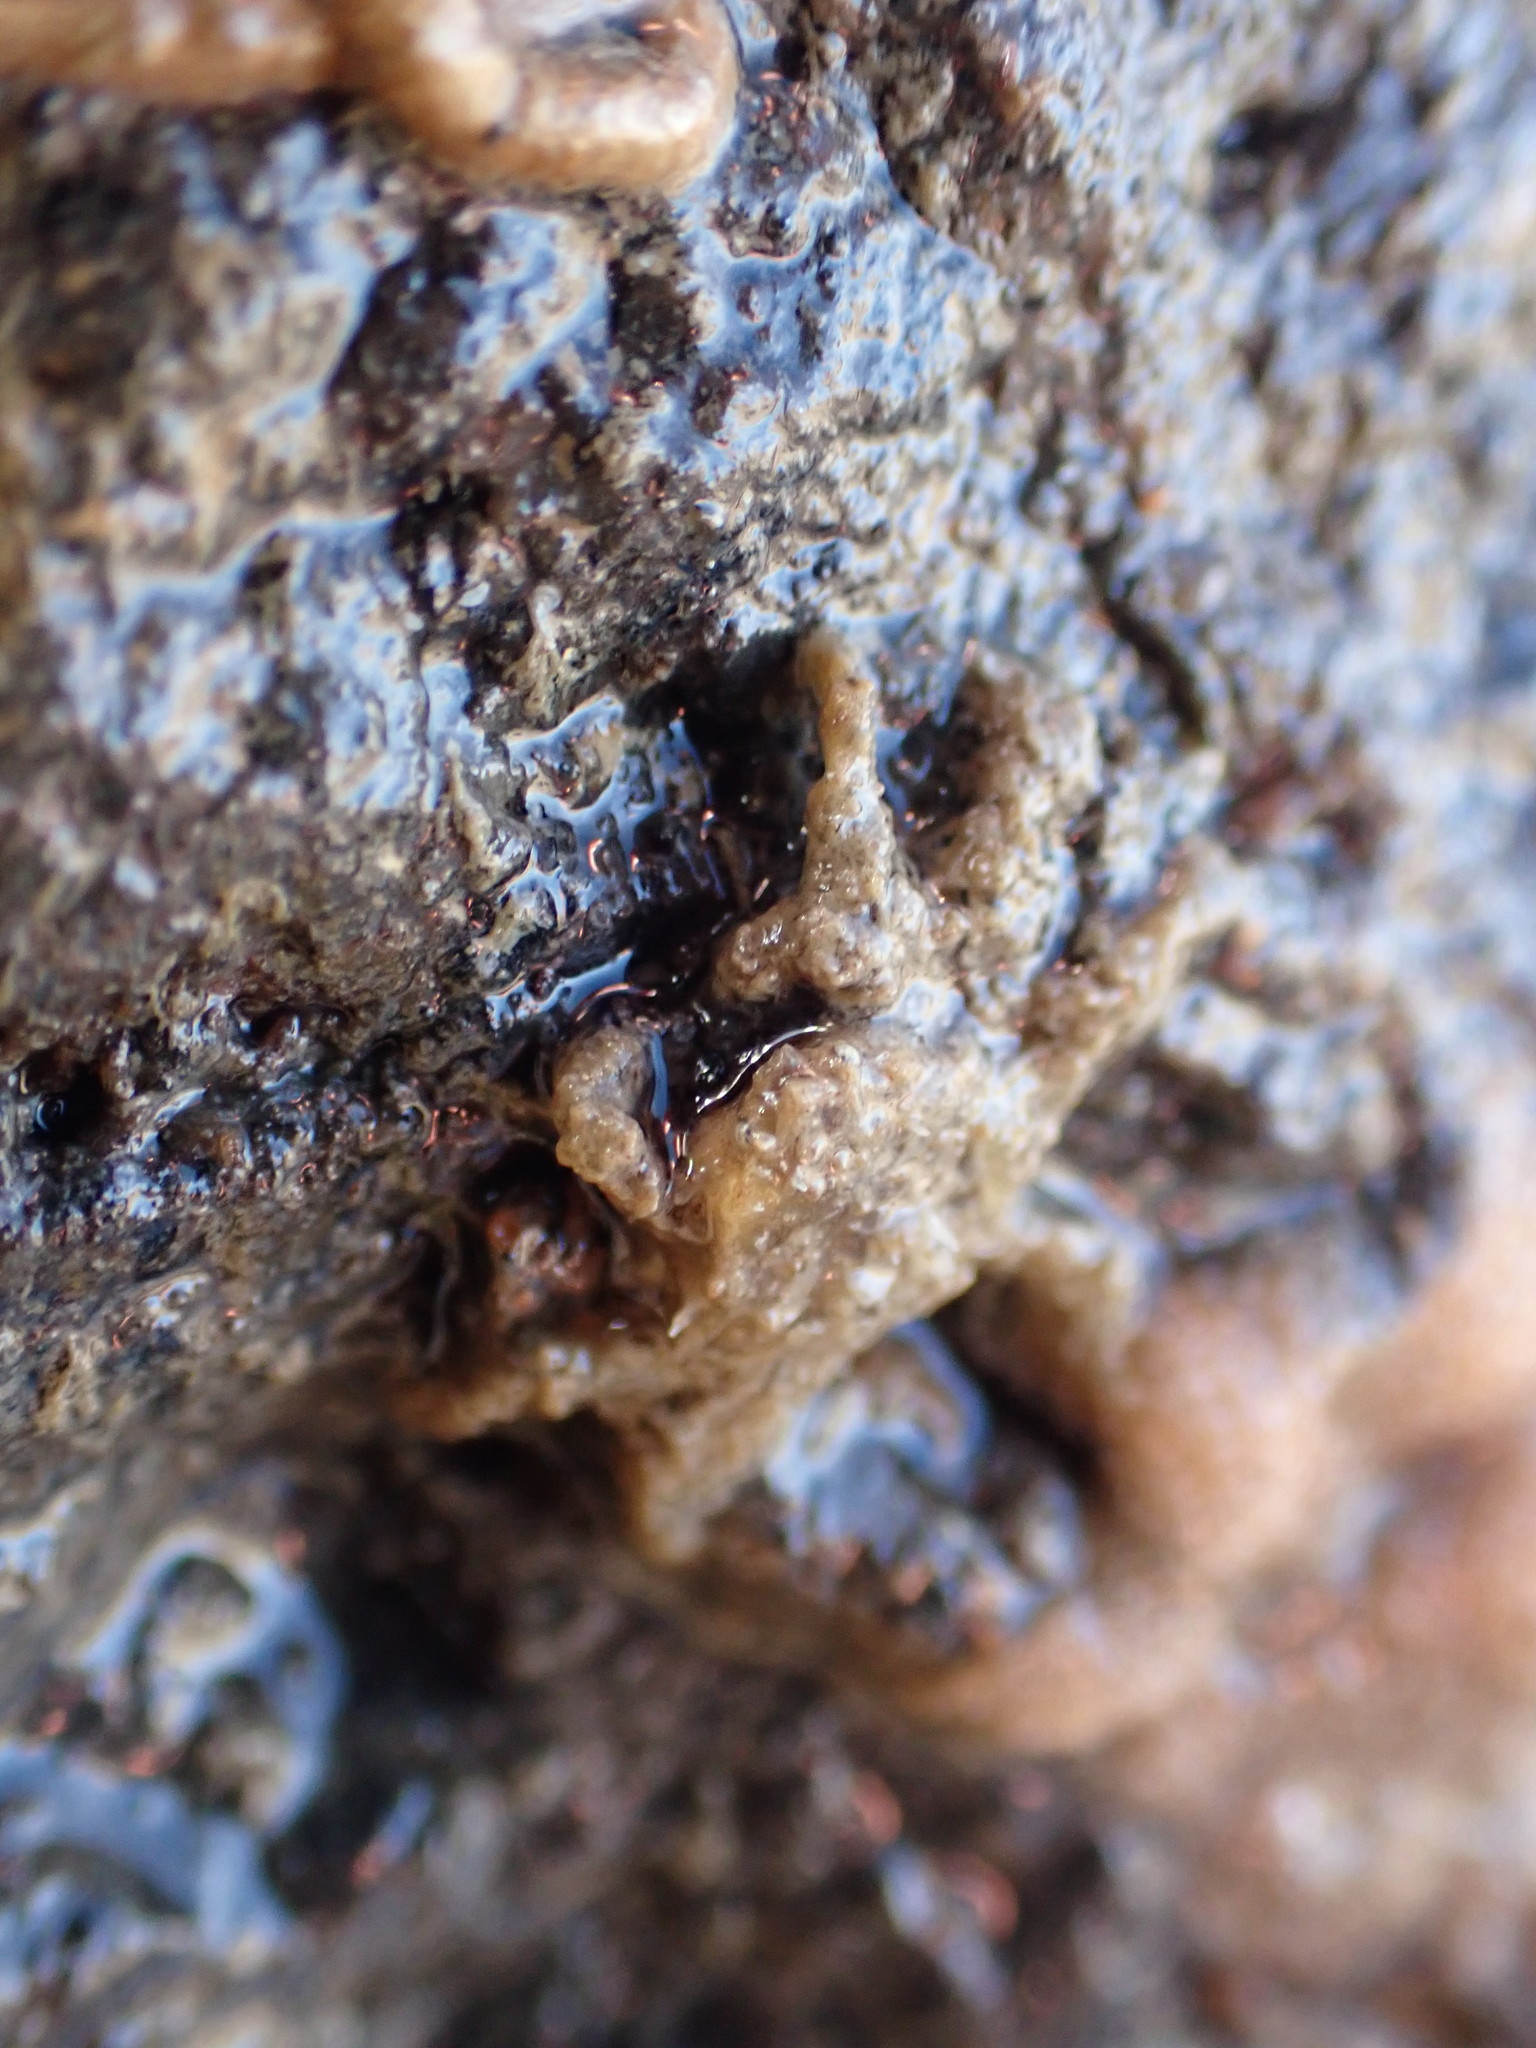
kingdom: Animalia
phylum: Arthropoda
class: Malacostraca
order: Decapoda
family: Hymenosomatidae
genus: Neohymenicus
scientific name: Neohymenicus pubescens
